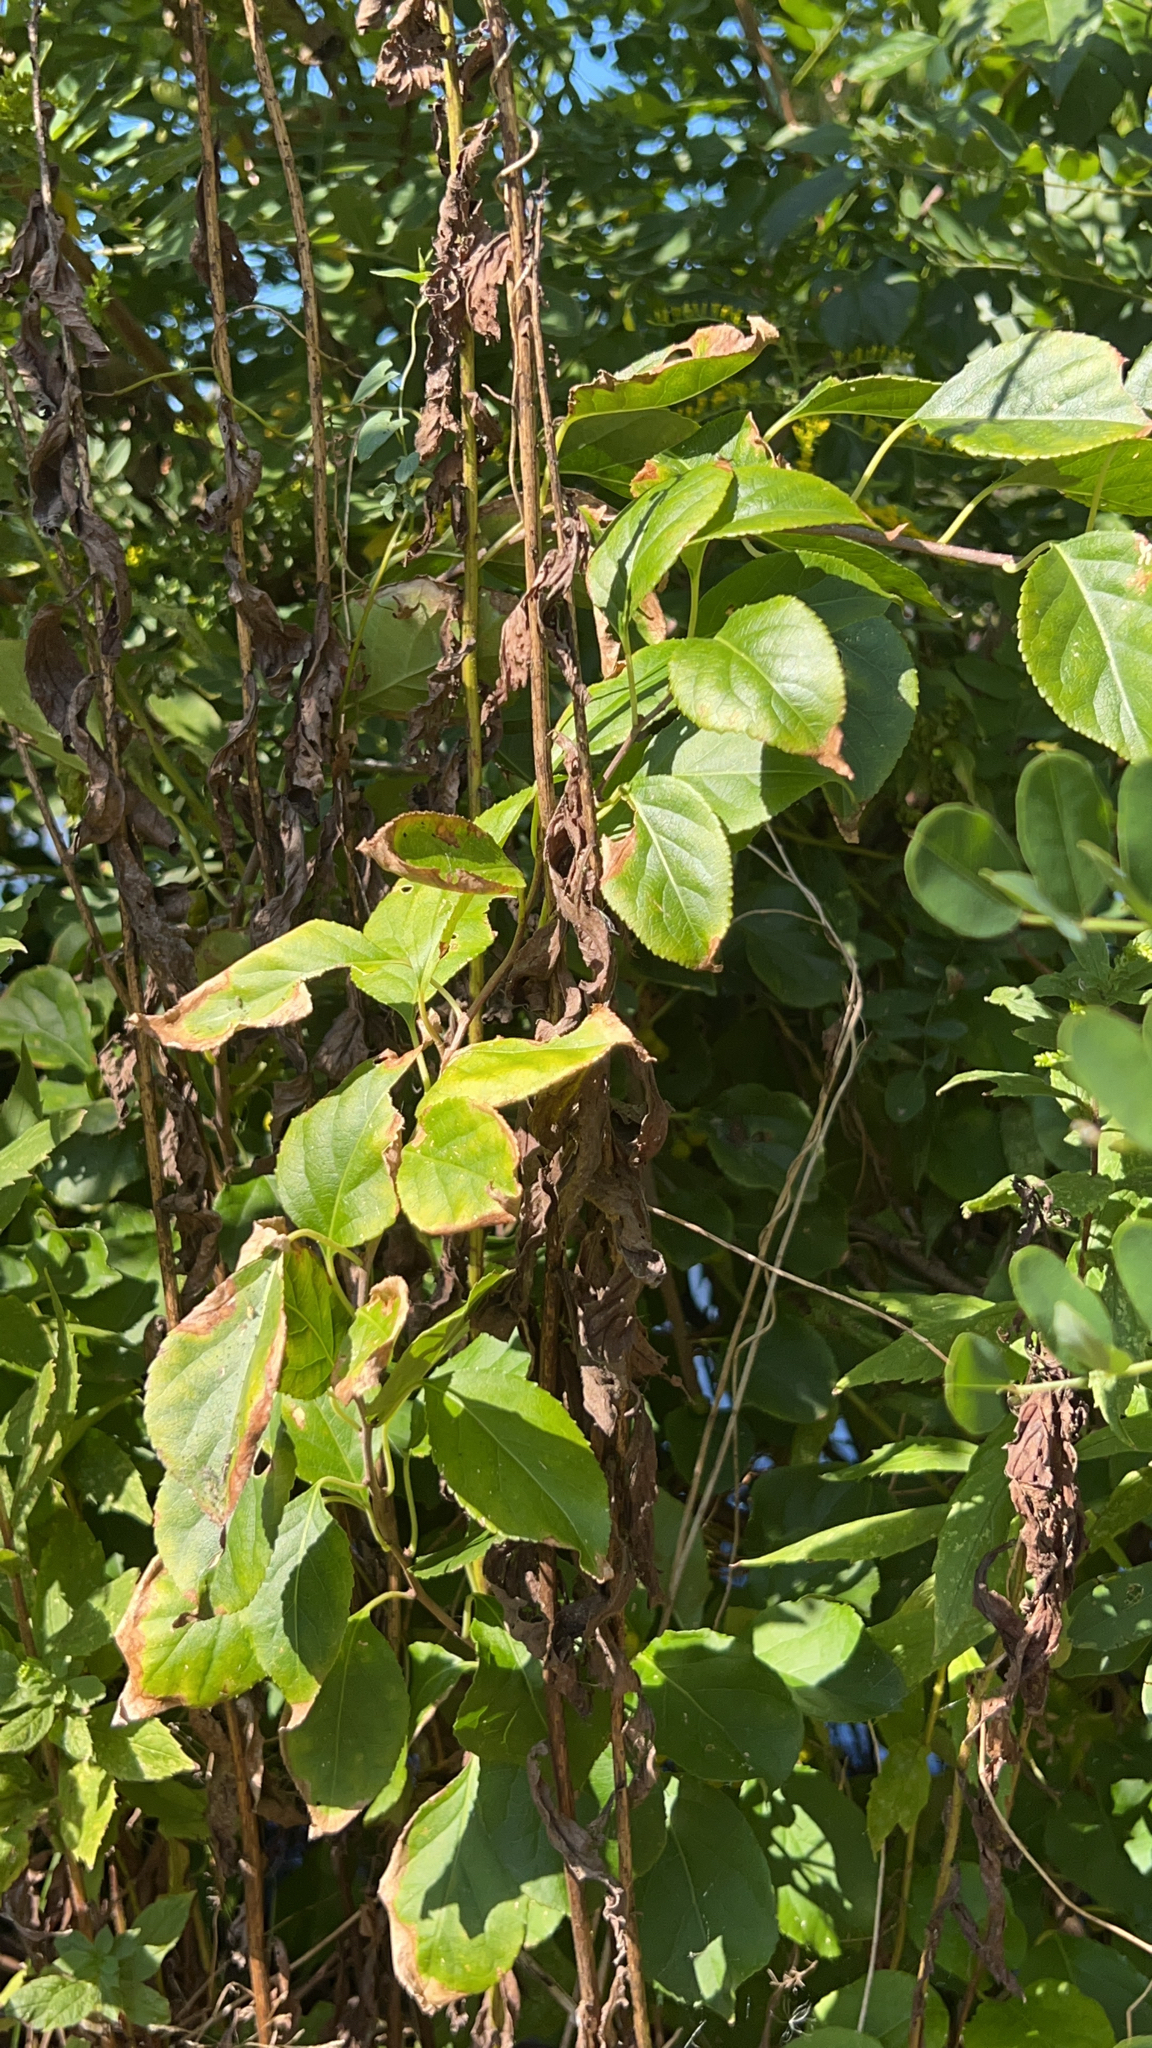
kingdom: Plantae
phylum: Tracheophyta
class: Magnoliopsida
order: Celastrales
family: Celastraceae
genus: Celastrus
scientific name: Celastrus orbiculatus
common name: Oriental bittersweet
